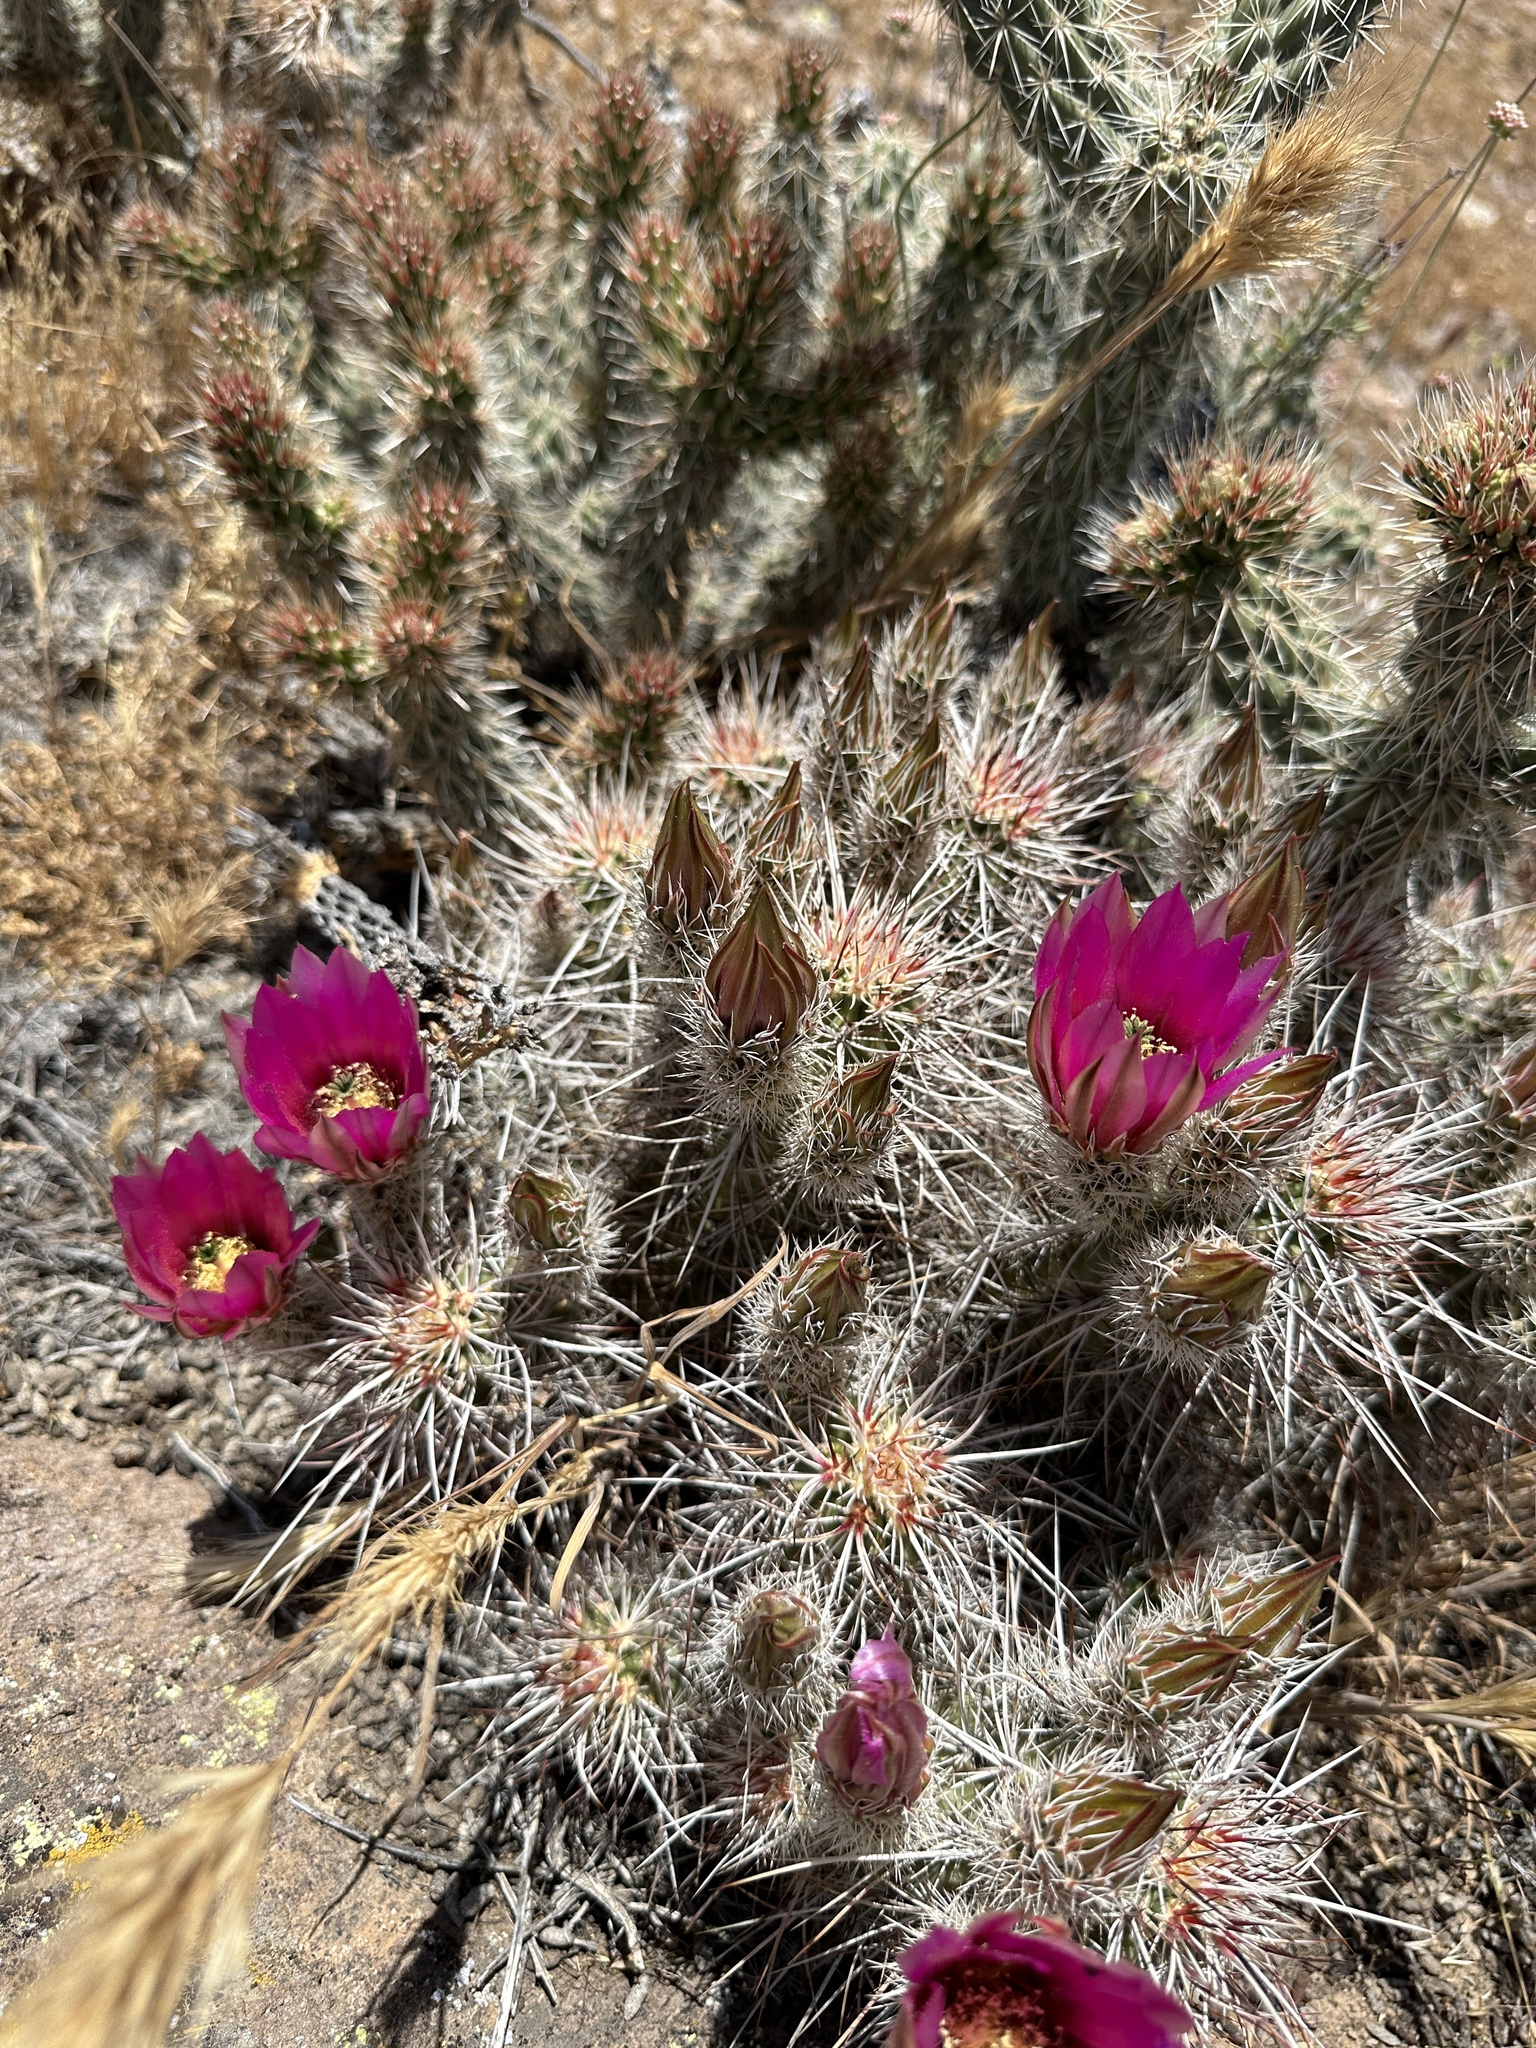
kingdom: Plantae
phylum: Tracheophyta
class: Magnoliopsida
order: Caryophyllales
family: Cactaceae
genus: Echinocereus
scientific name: Echinocereus engelmannii
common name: Engelmann's hedgehog cactus
